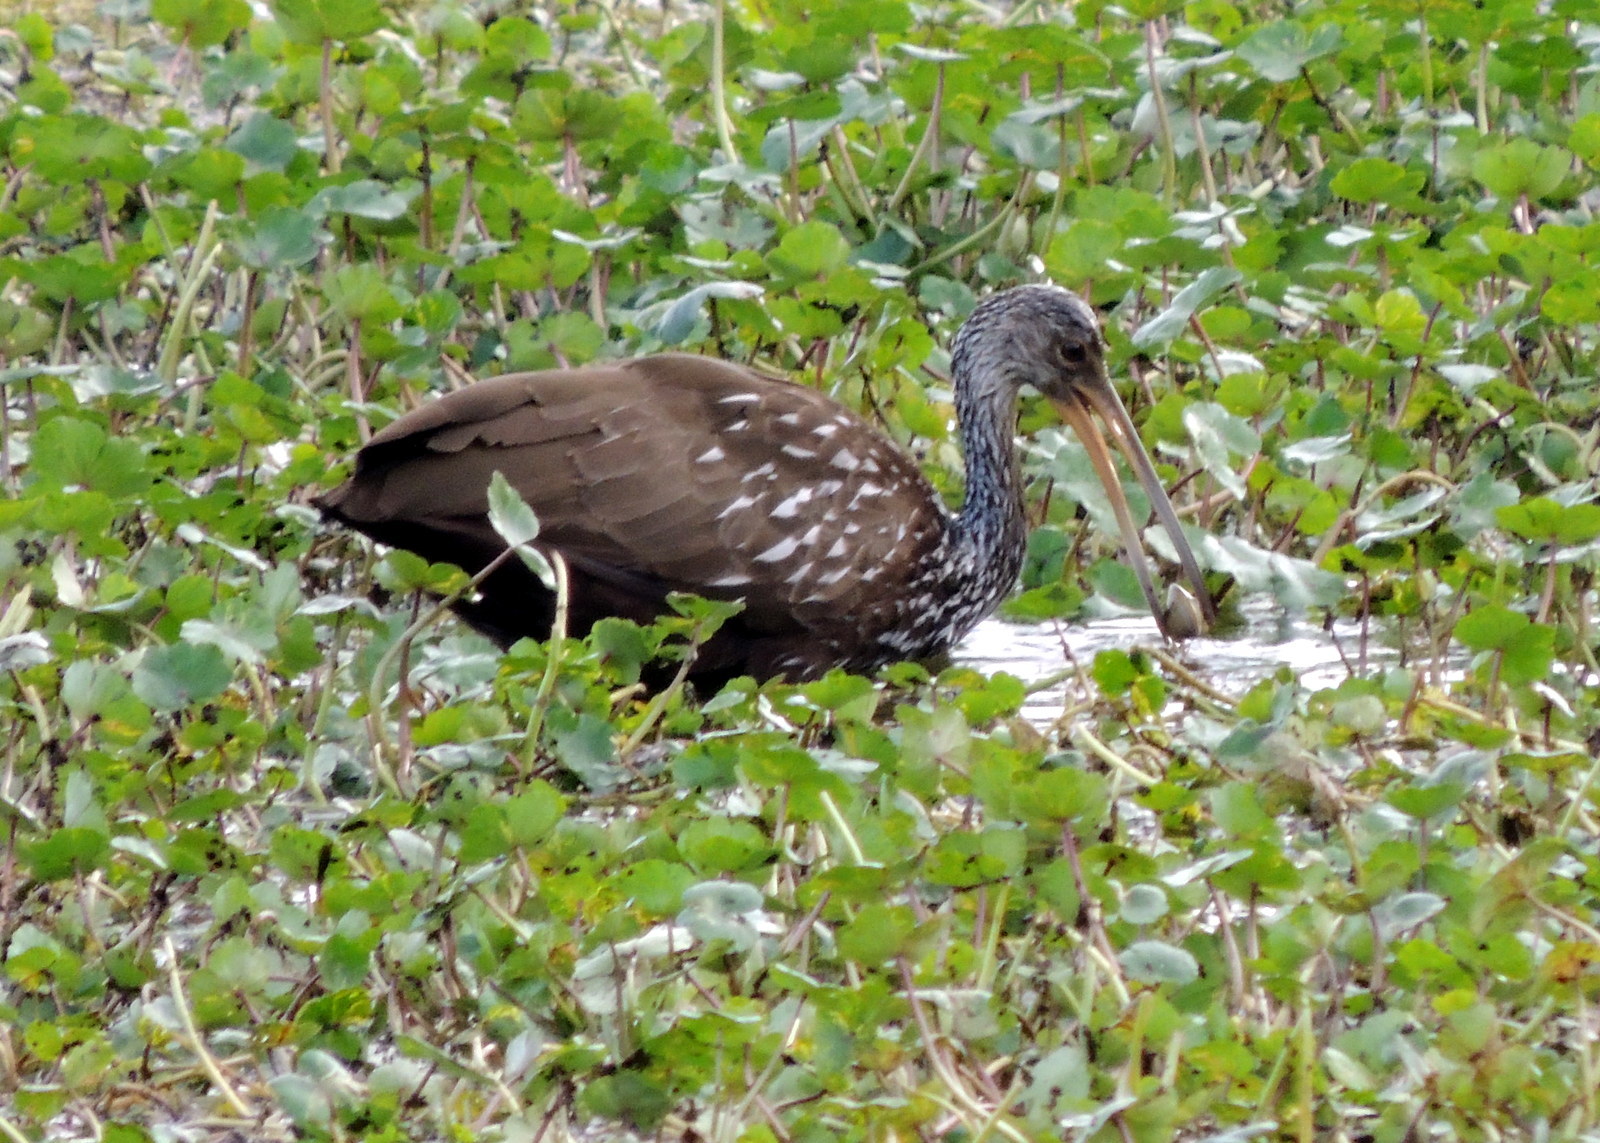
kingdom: Animalia
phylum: Chordata
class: Aves
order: Gruiformes
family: Aramidae
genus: Aramus
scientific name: Aramus guarauna
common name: Limpkin
